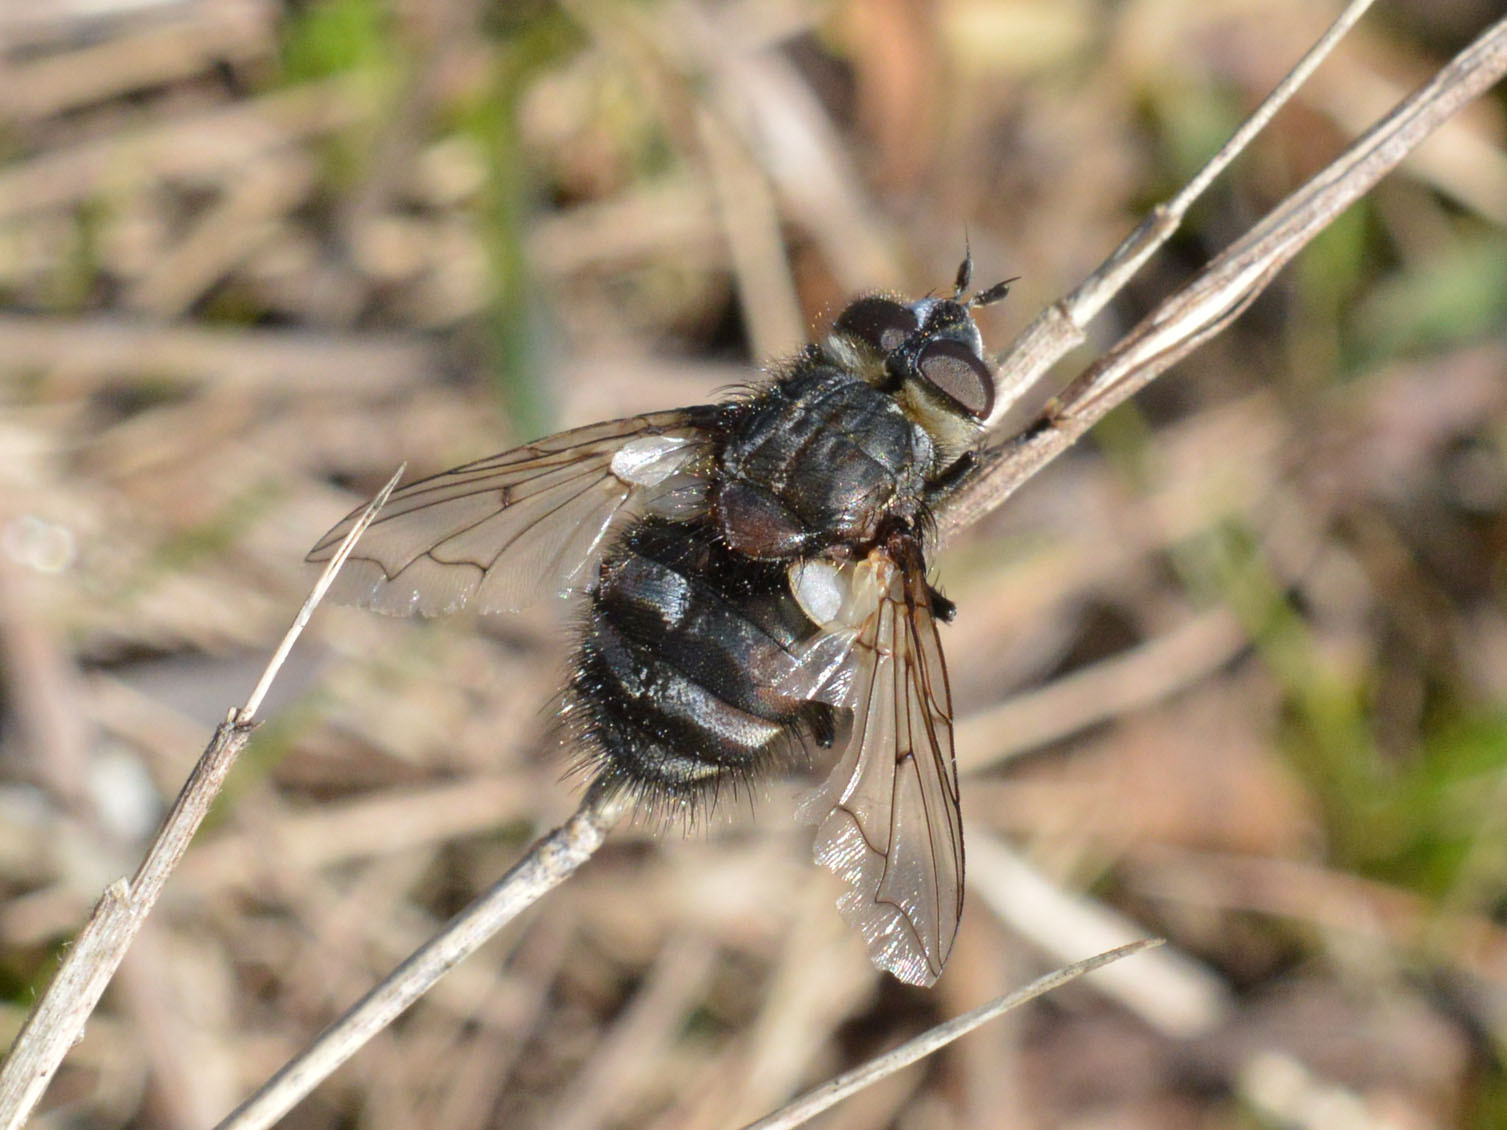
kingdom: Animalia
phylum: Arthropoda
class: Insecta
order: Diptera
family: Tachinidae
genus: Panzeria
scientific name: Panzeria puparum
